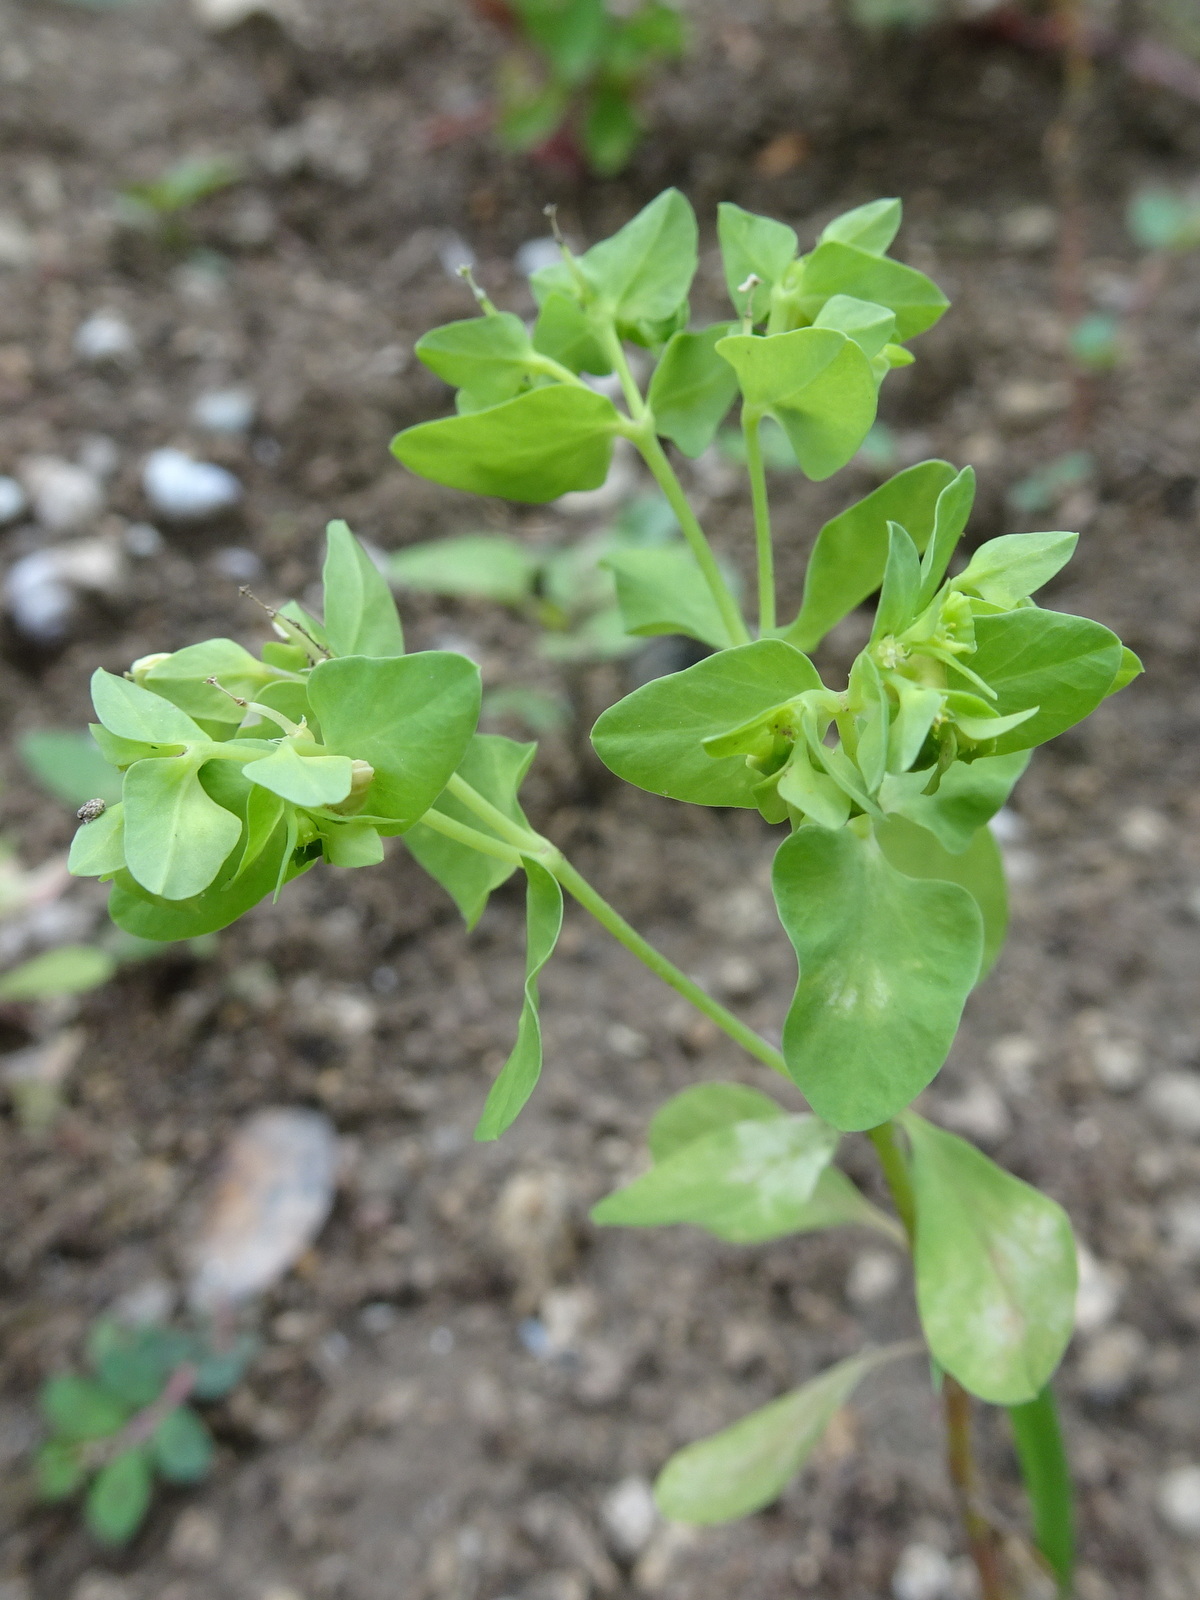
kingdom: Plantae
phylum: Tracheophyta
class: Magnoliopsida
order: Malpighiales
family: Euphorbiaceae
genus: Euphorbia
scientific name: Euphorbia peplus
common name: Petty spurge
